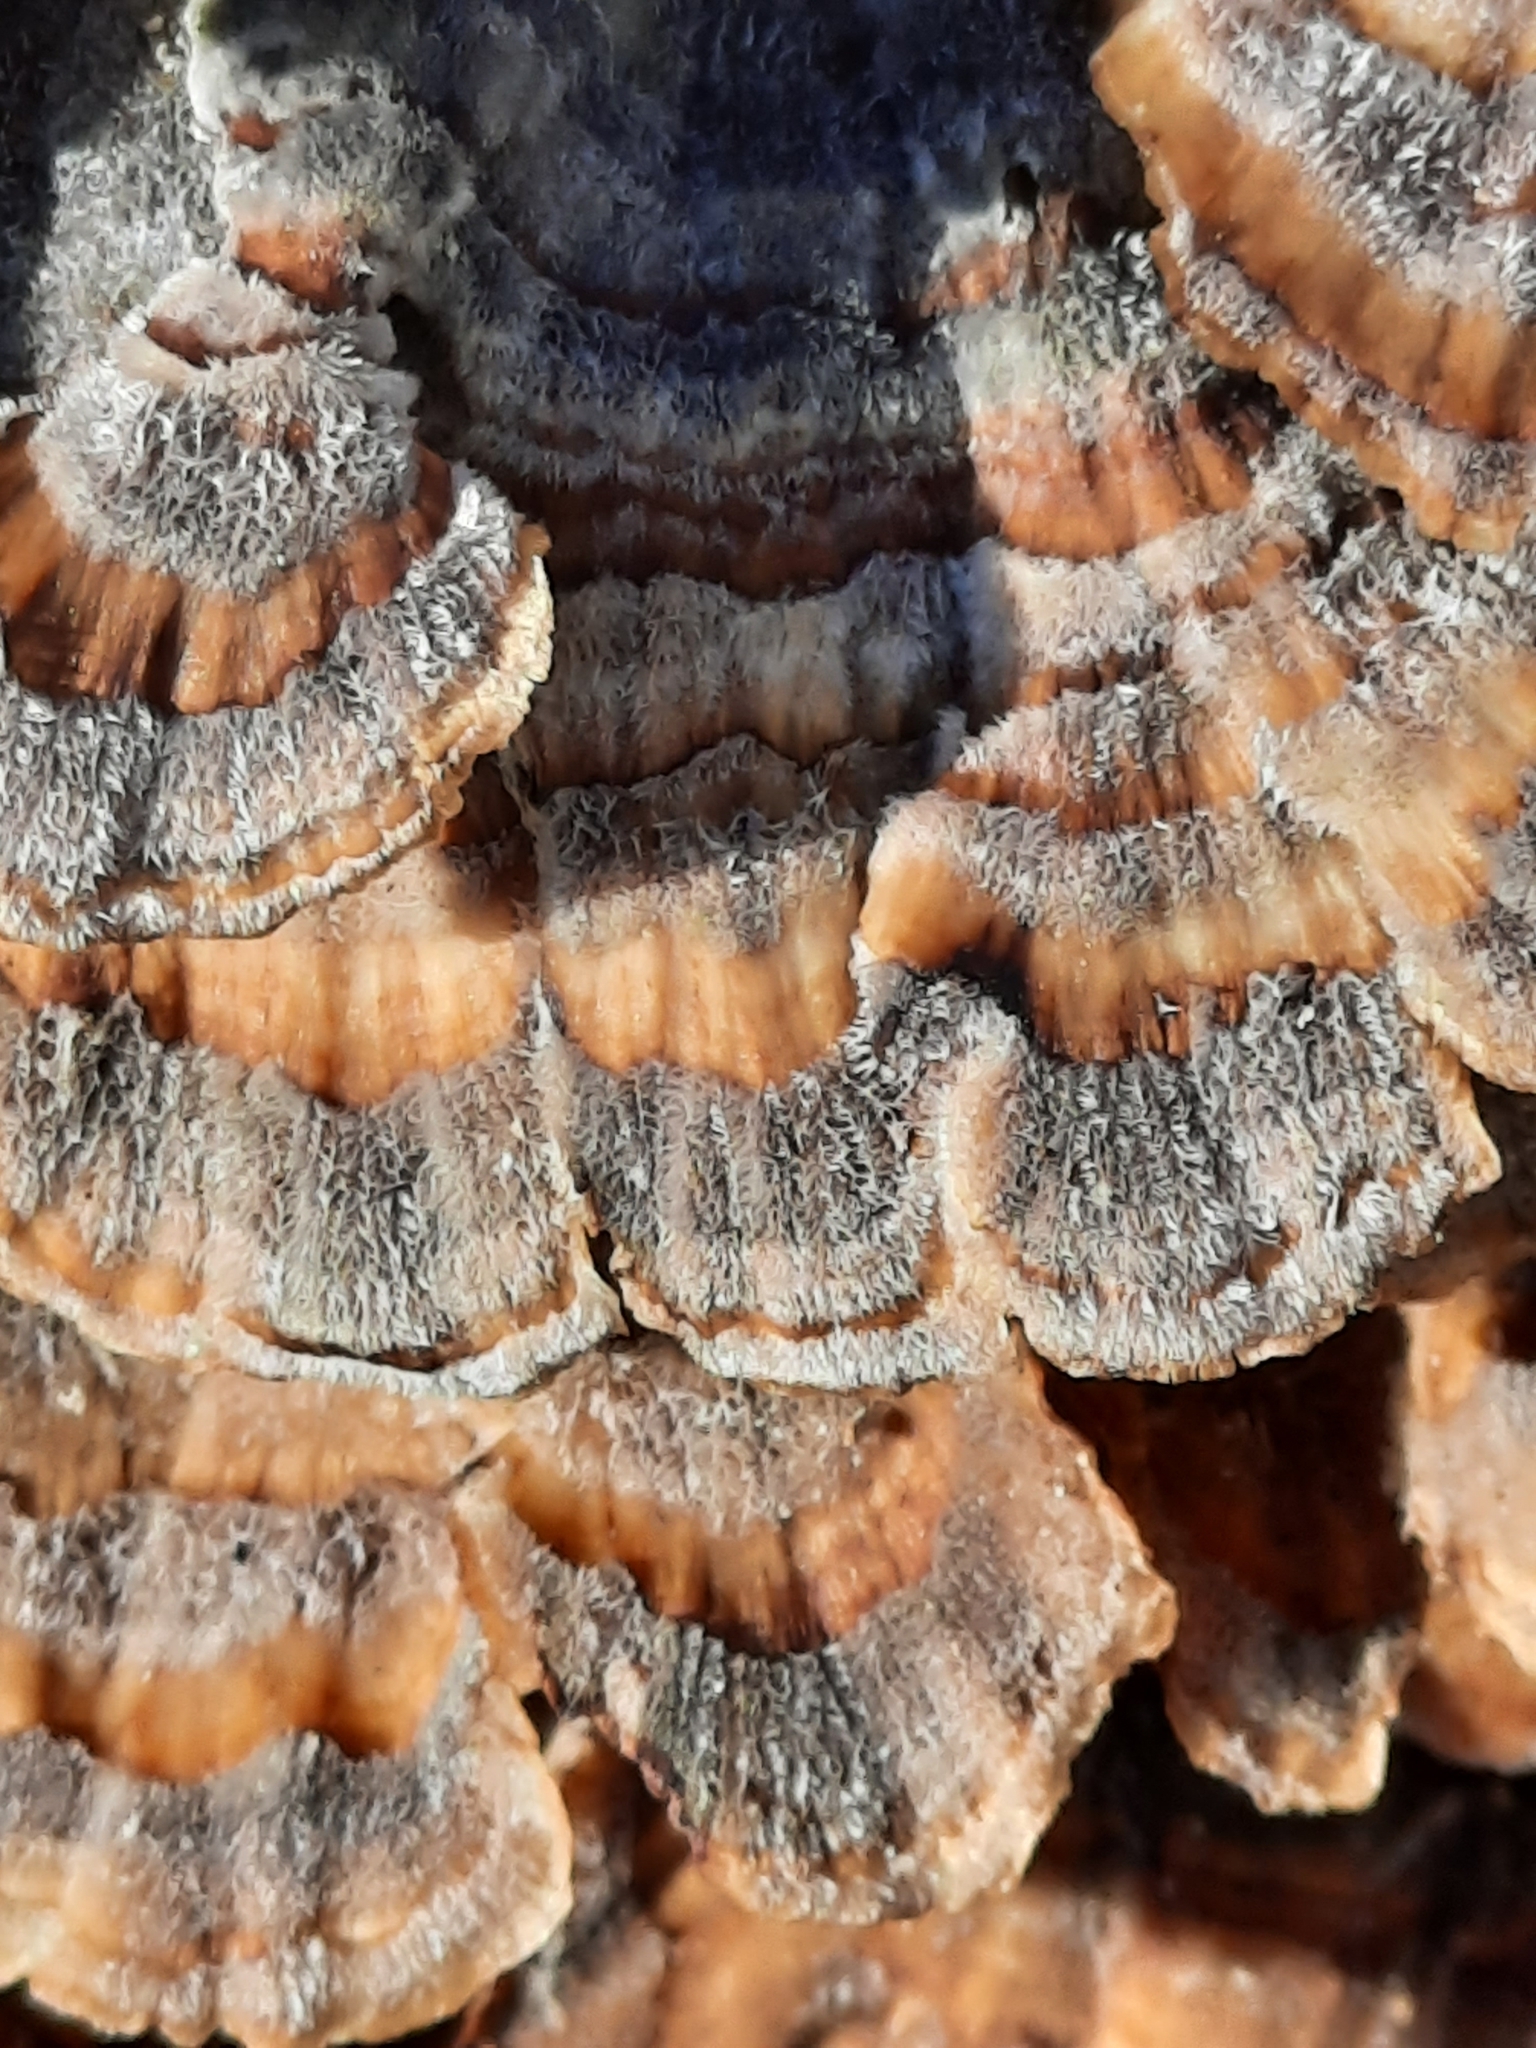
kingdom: Fungi
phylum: Basidiomycota
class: Agaricomycetes
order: Polyporales
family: Polyporaceae
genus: Trametes
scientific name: Trametes versicolor
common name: Turkeytail
